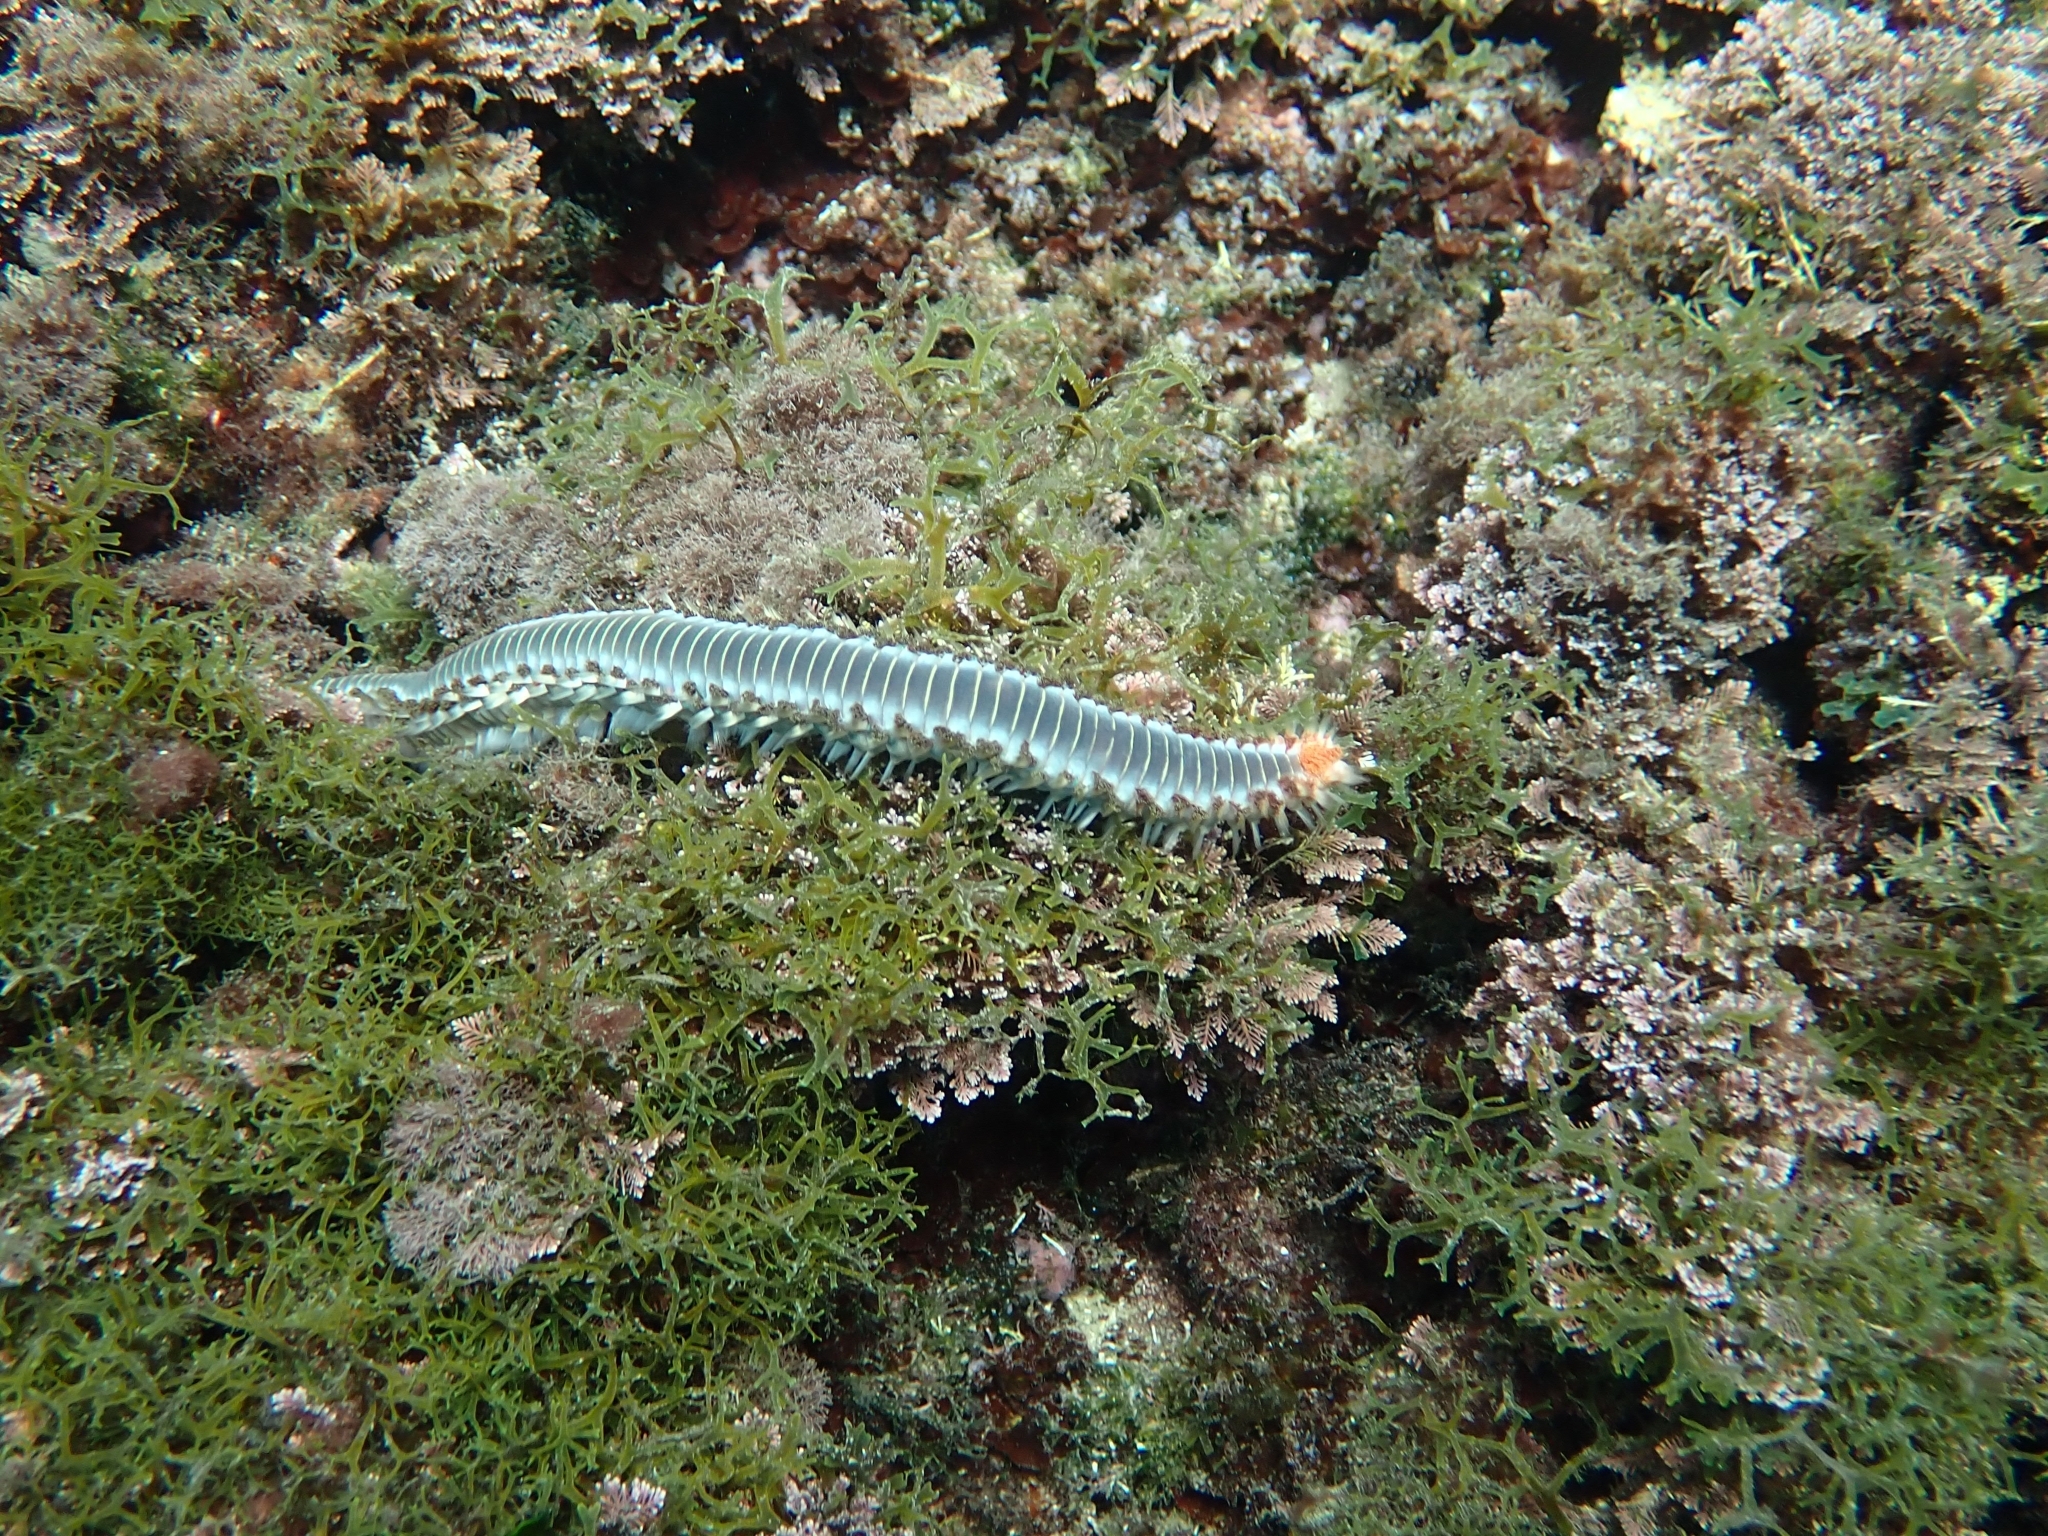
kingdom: Animalia
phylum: Annelida
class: Polychaeta
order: Amphinomida
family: Amphinomidae
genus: Hermodice
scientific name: Hermodice carunculata
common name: Bearded fireworm
